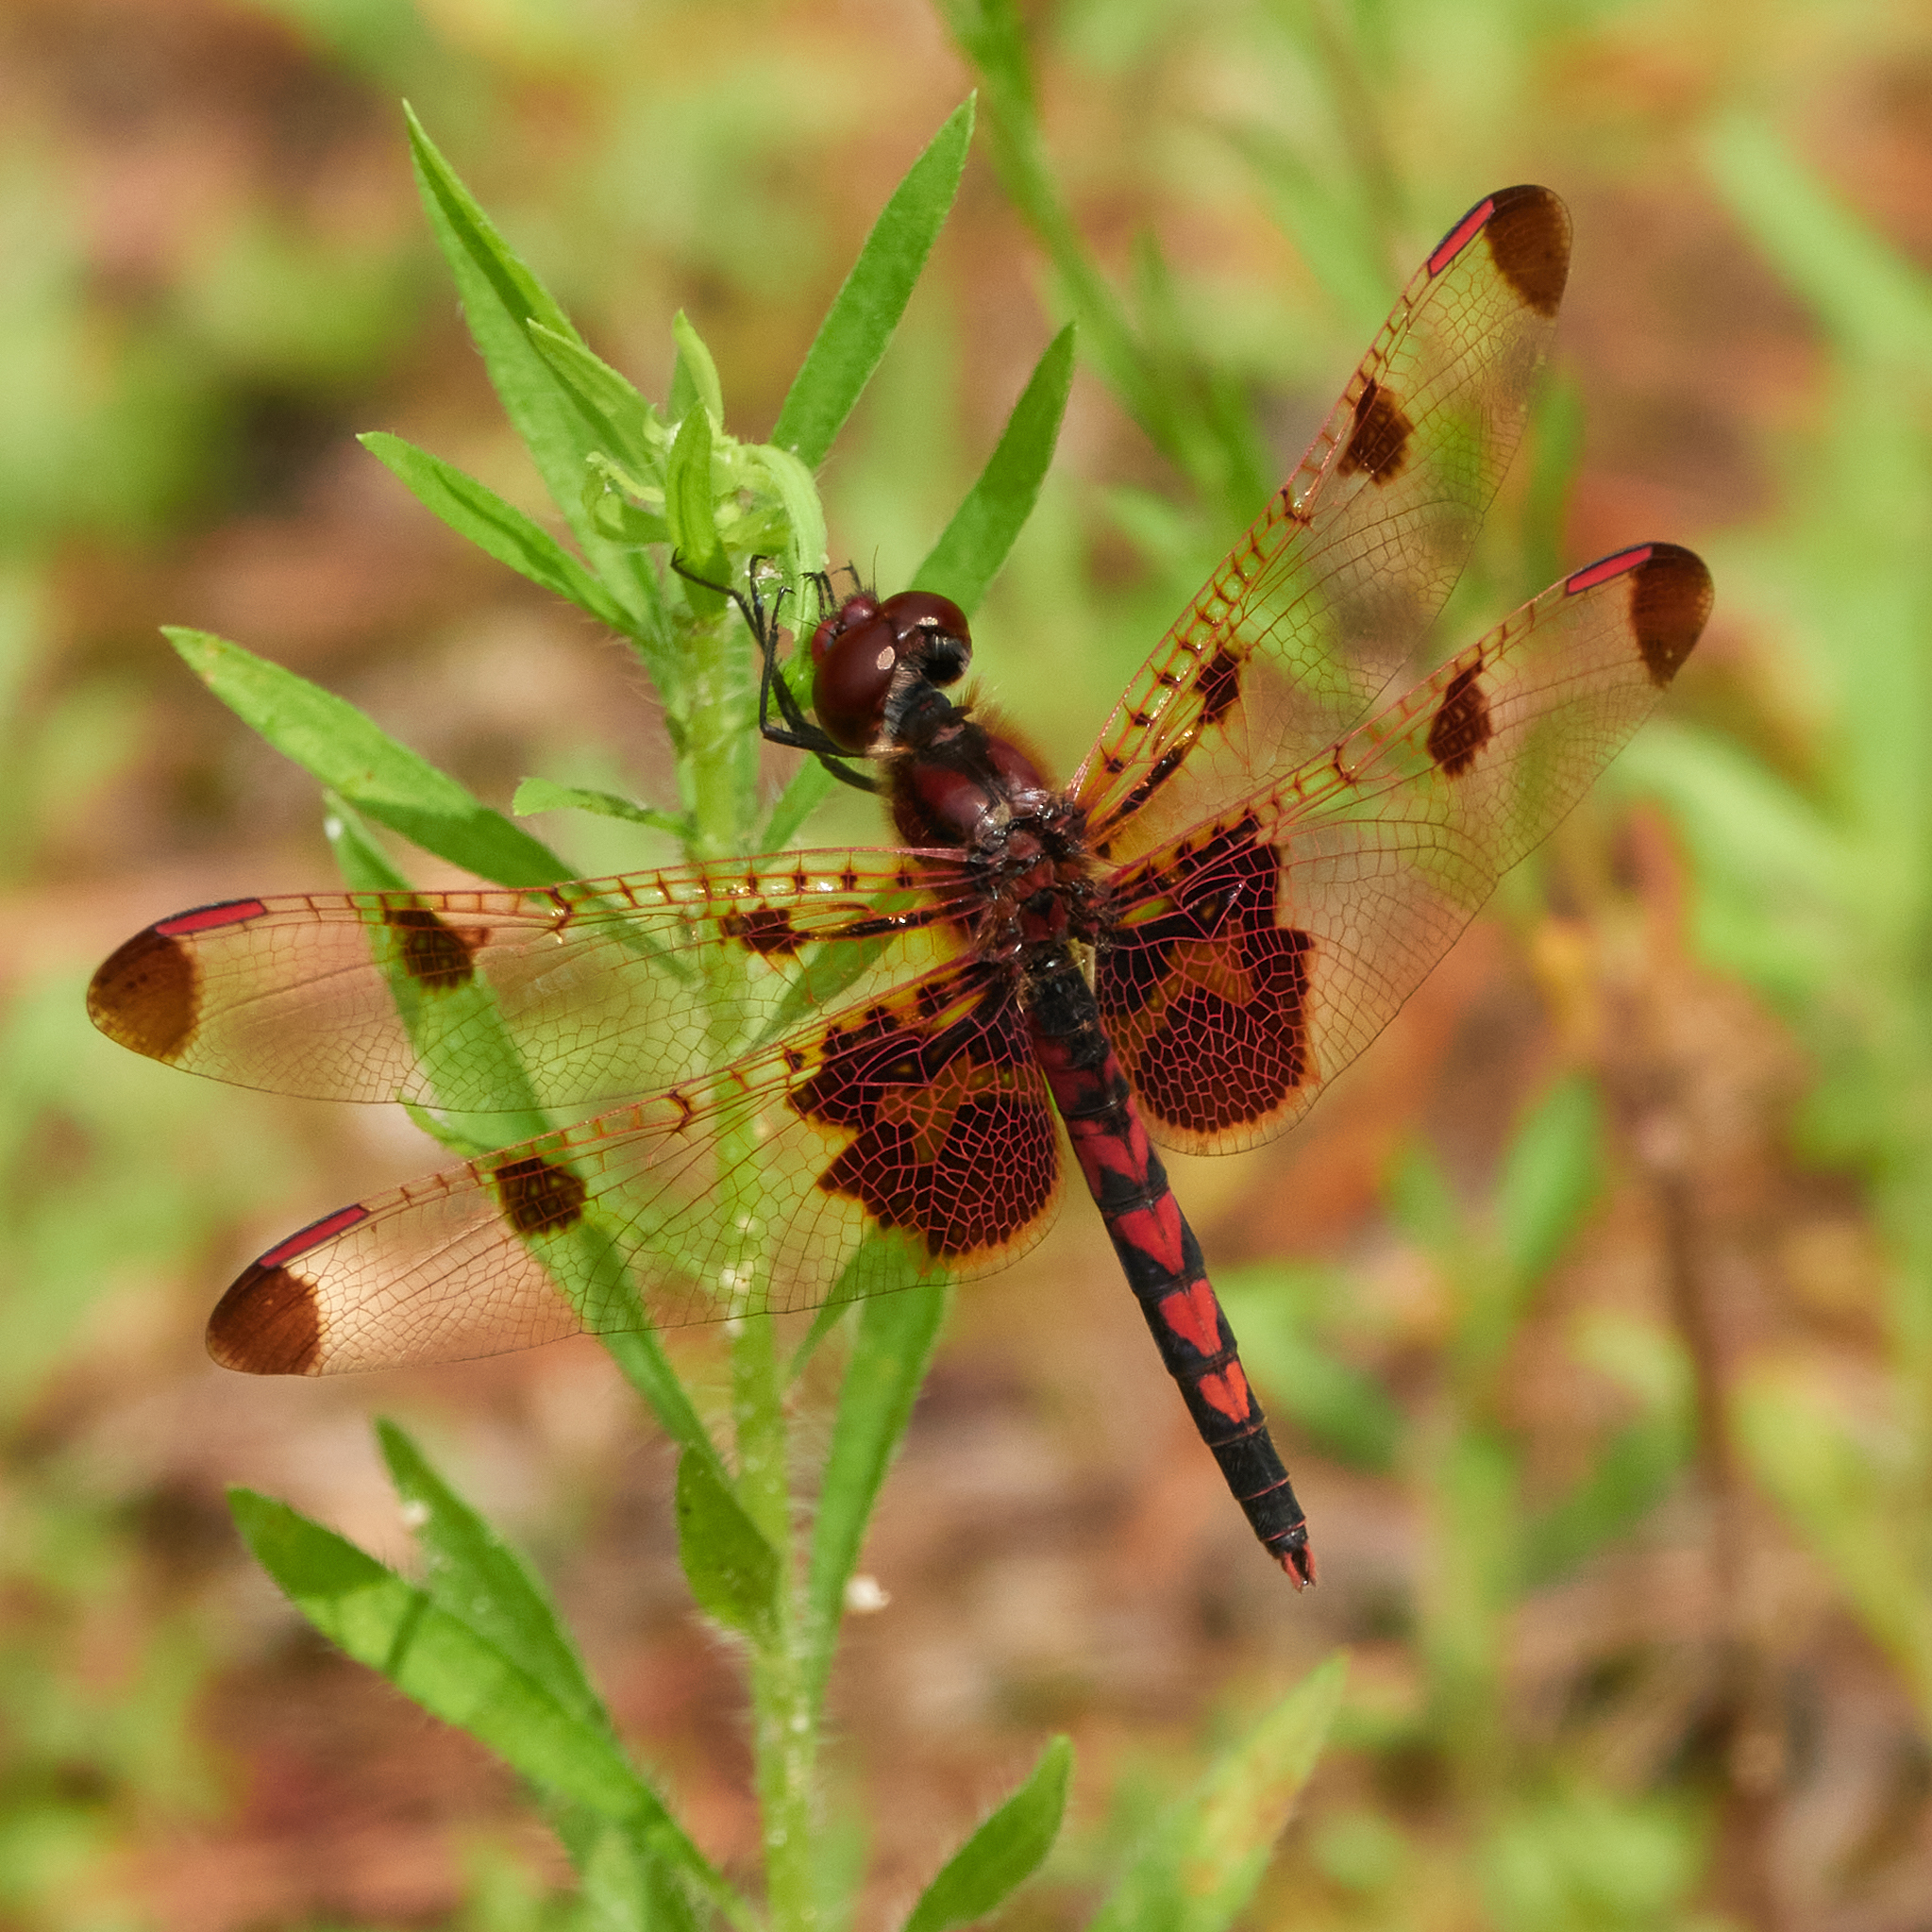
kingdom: Animalia
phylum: Arthropoda
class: Insecta
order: Odonata
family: Libellulidae
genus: Celithemis
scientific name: Celithemis elisa
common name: Calico pennant
